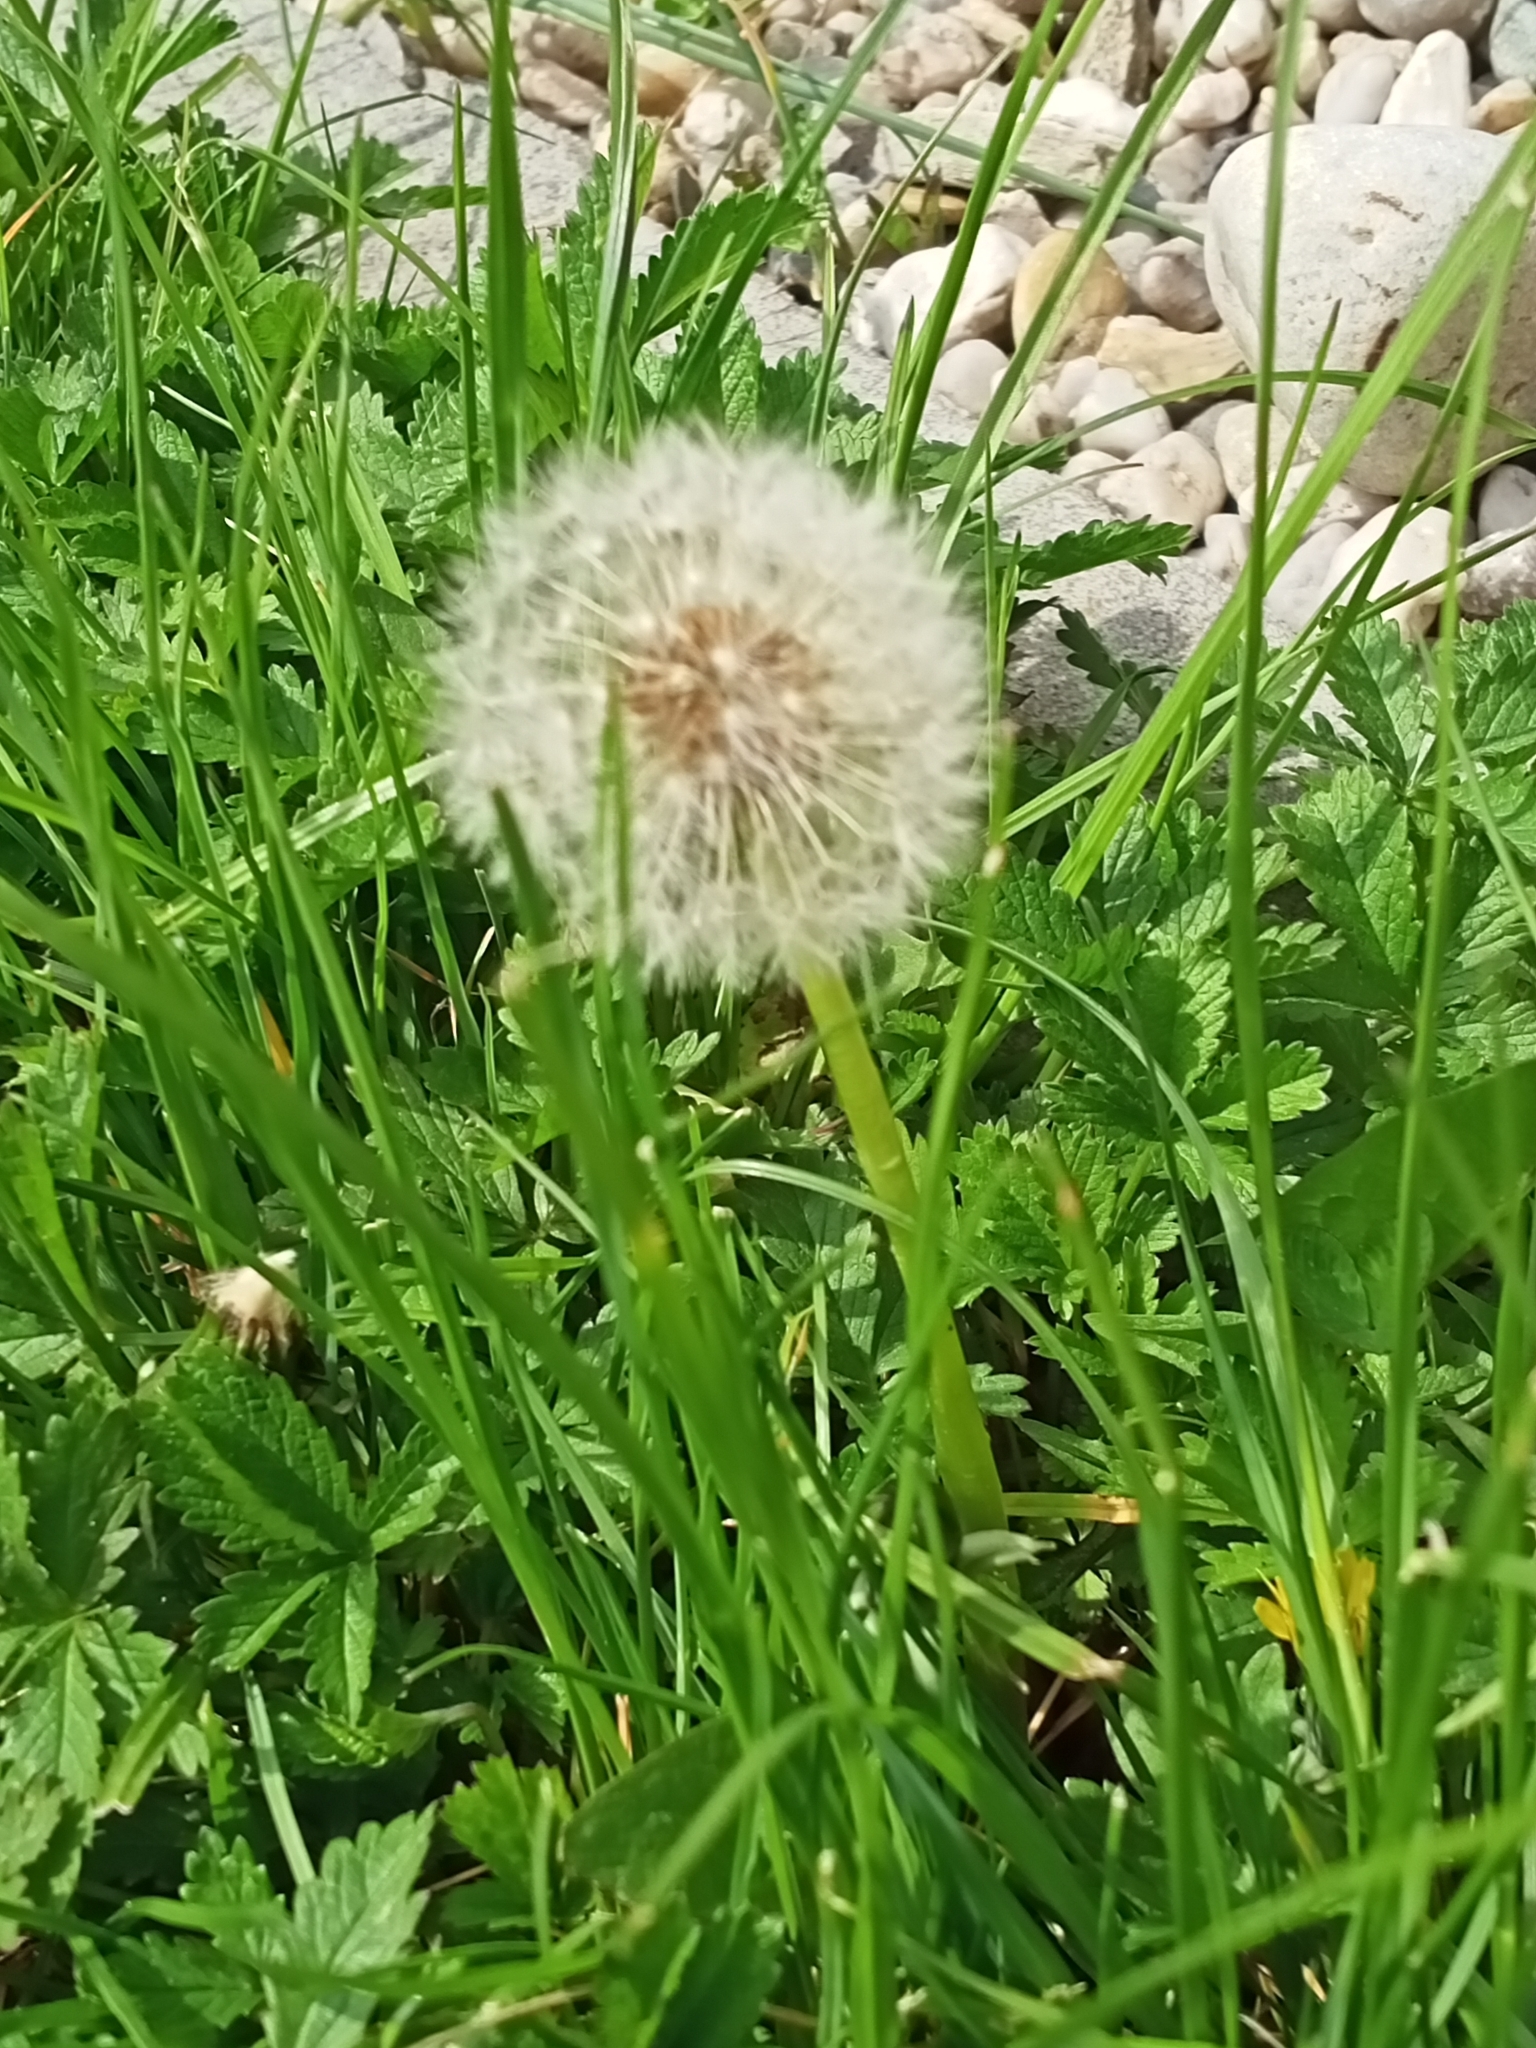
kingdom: Plantae
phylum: Tracheophyta
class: Magnoliopsida
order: Asterales
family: Asteraceae
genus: Taraxacum
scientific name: Taraxacum officinale
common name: Common dandelion
